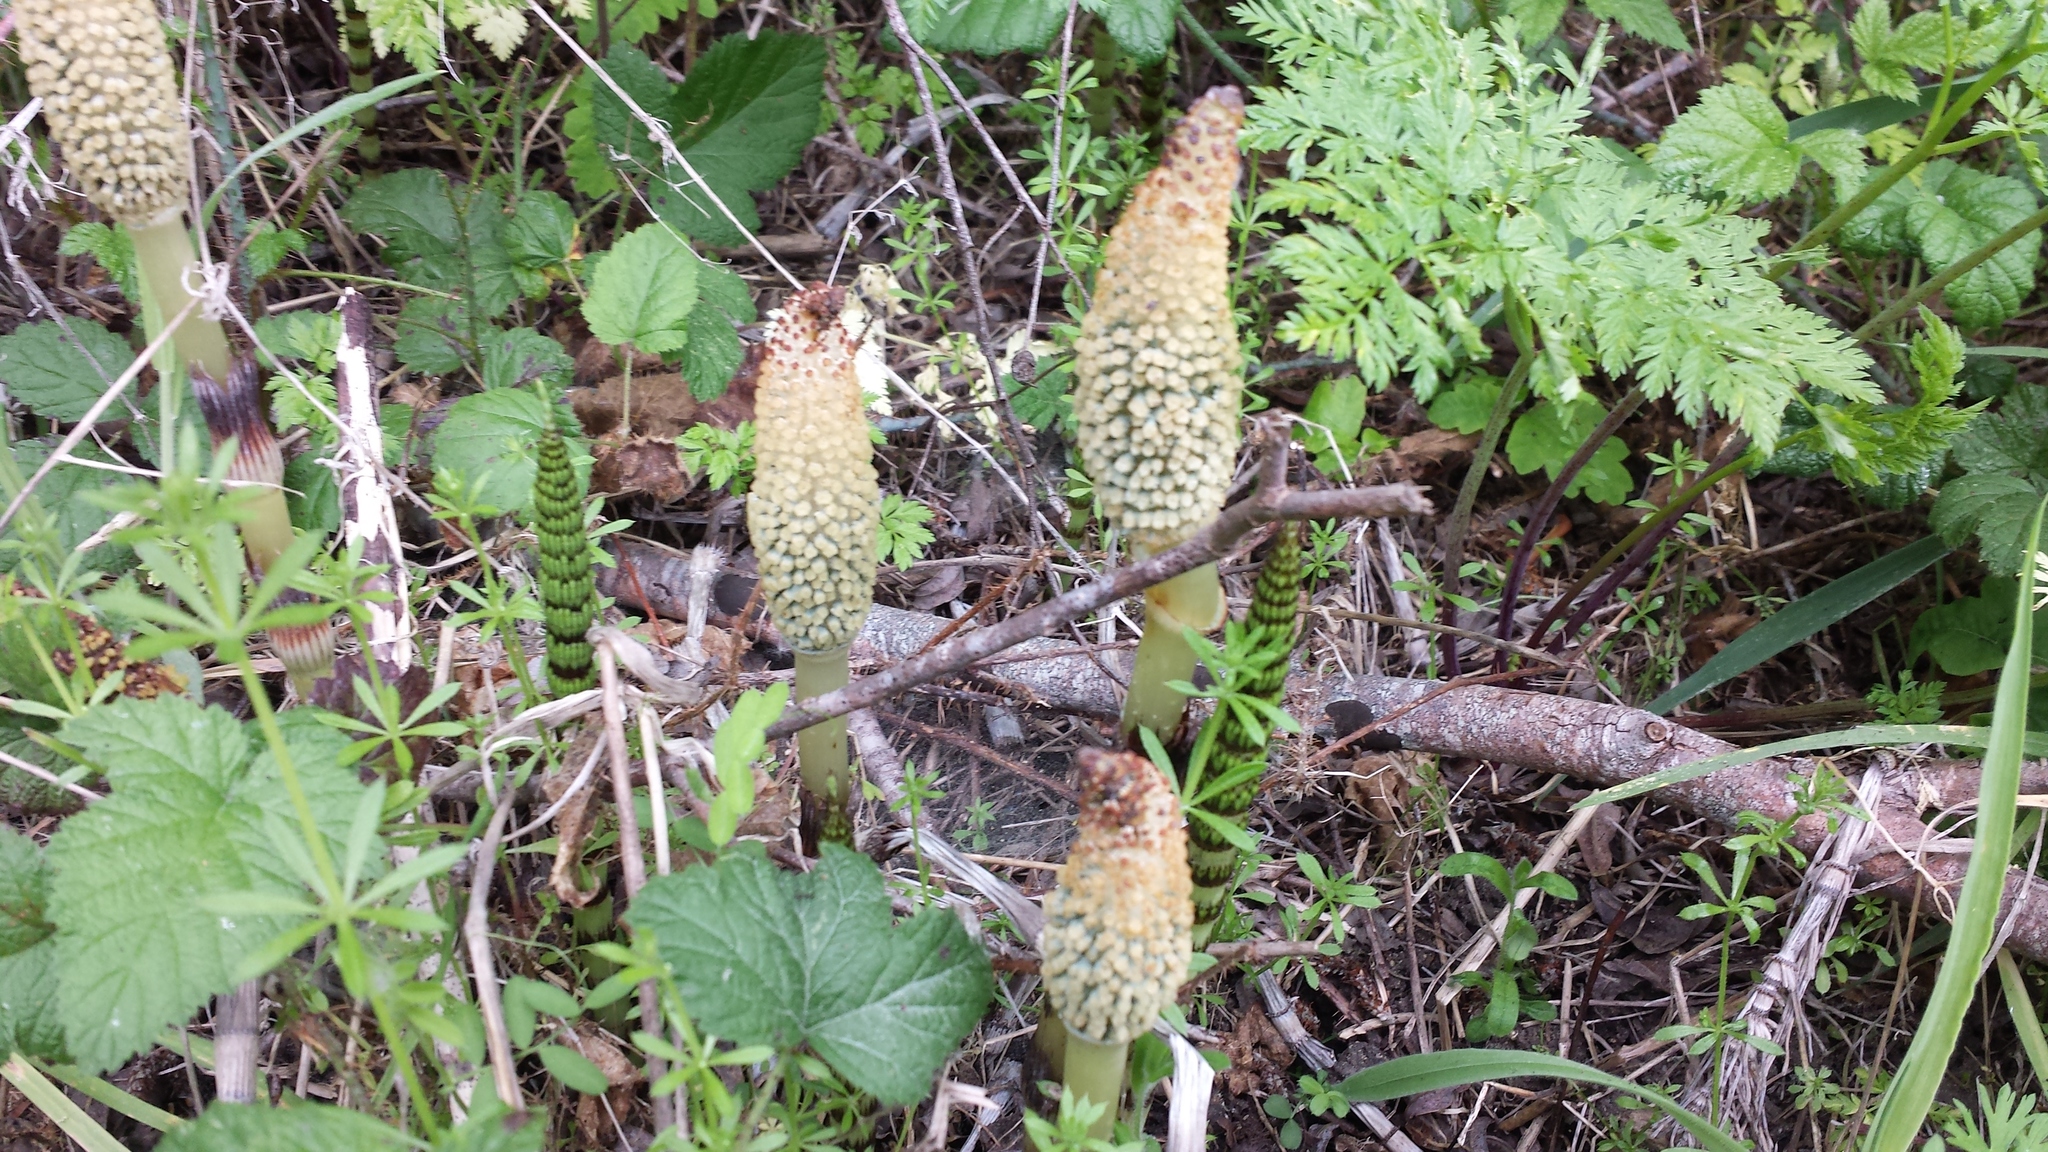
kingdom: Plantae
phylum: Tracheophyta
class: Polypodiopsida
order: Equisetales
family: Equisetaceae
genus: Equisetum
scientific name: Equisetum braunii
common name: Braun's horsetail
